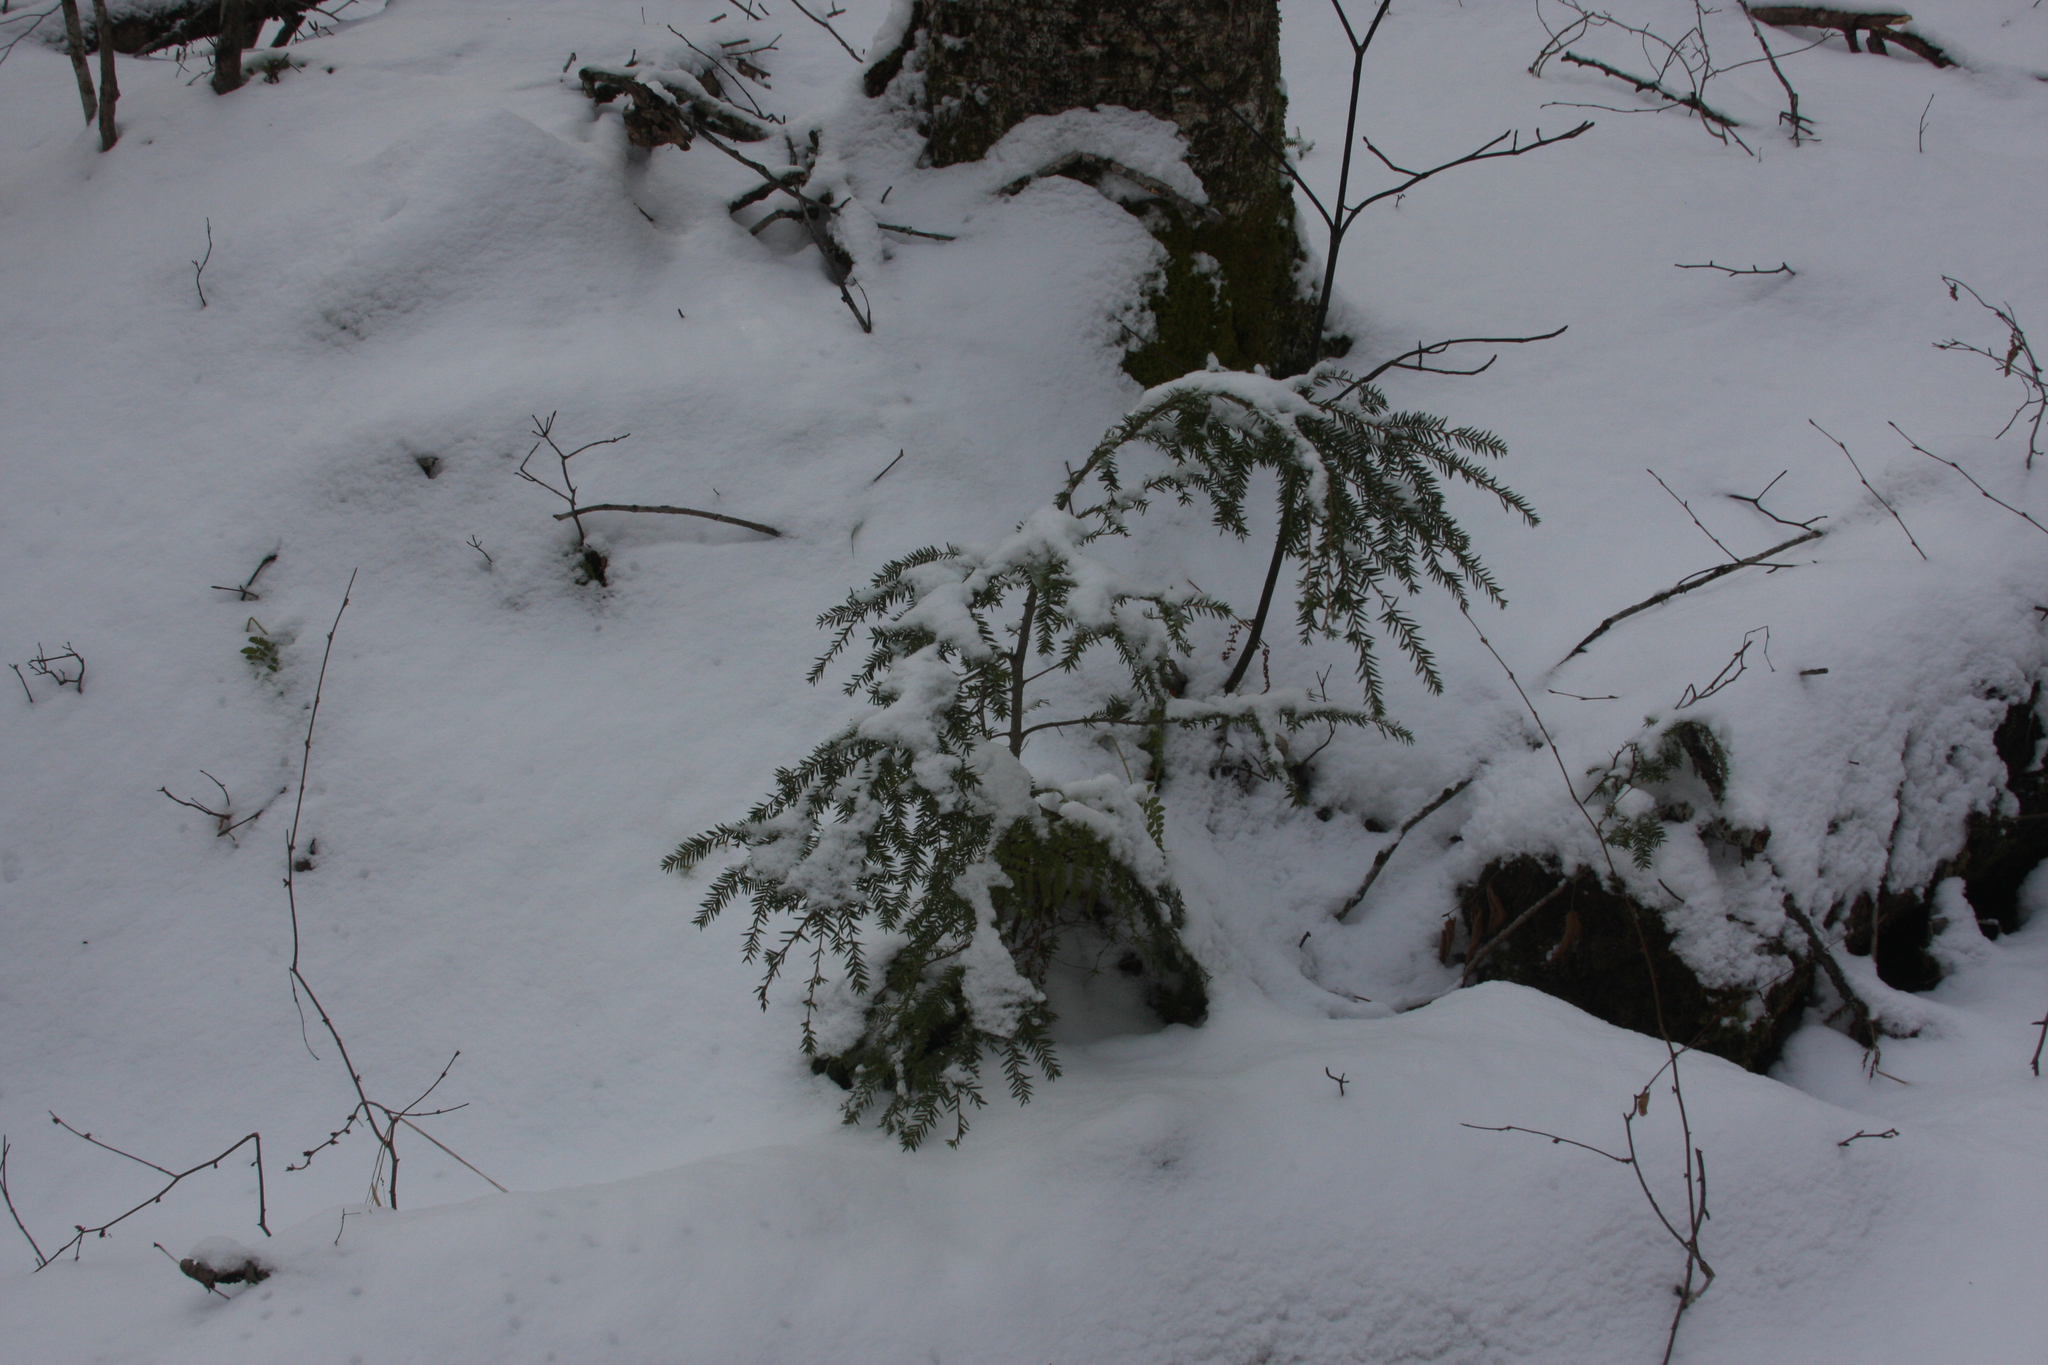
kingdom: Plantae
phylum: Tracheophyta
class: Pinopsida
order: Pinales
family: Pinaceae
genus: Tsuga
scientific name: Tsuga canadensis
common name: Eastern hemlock
